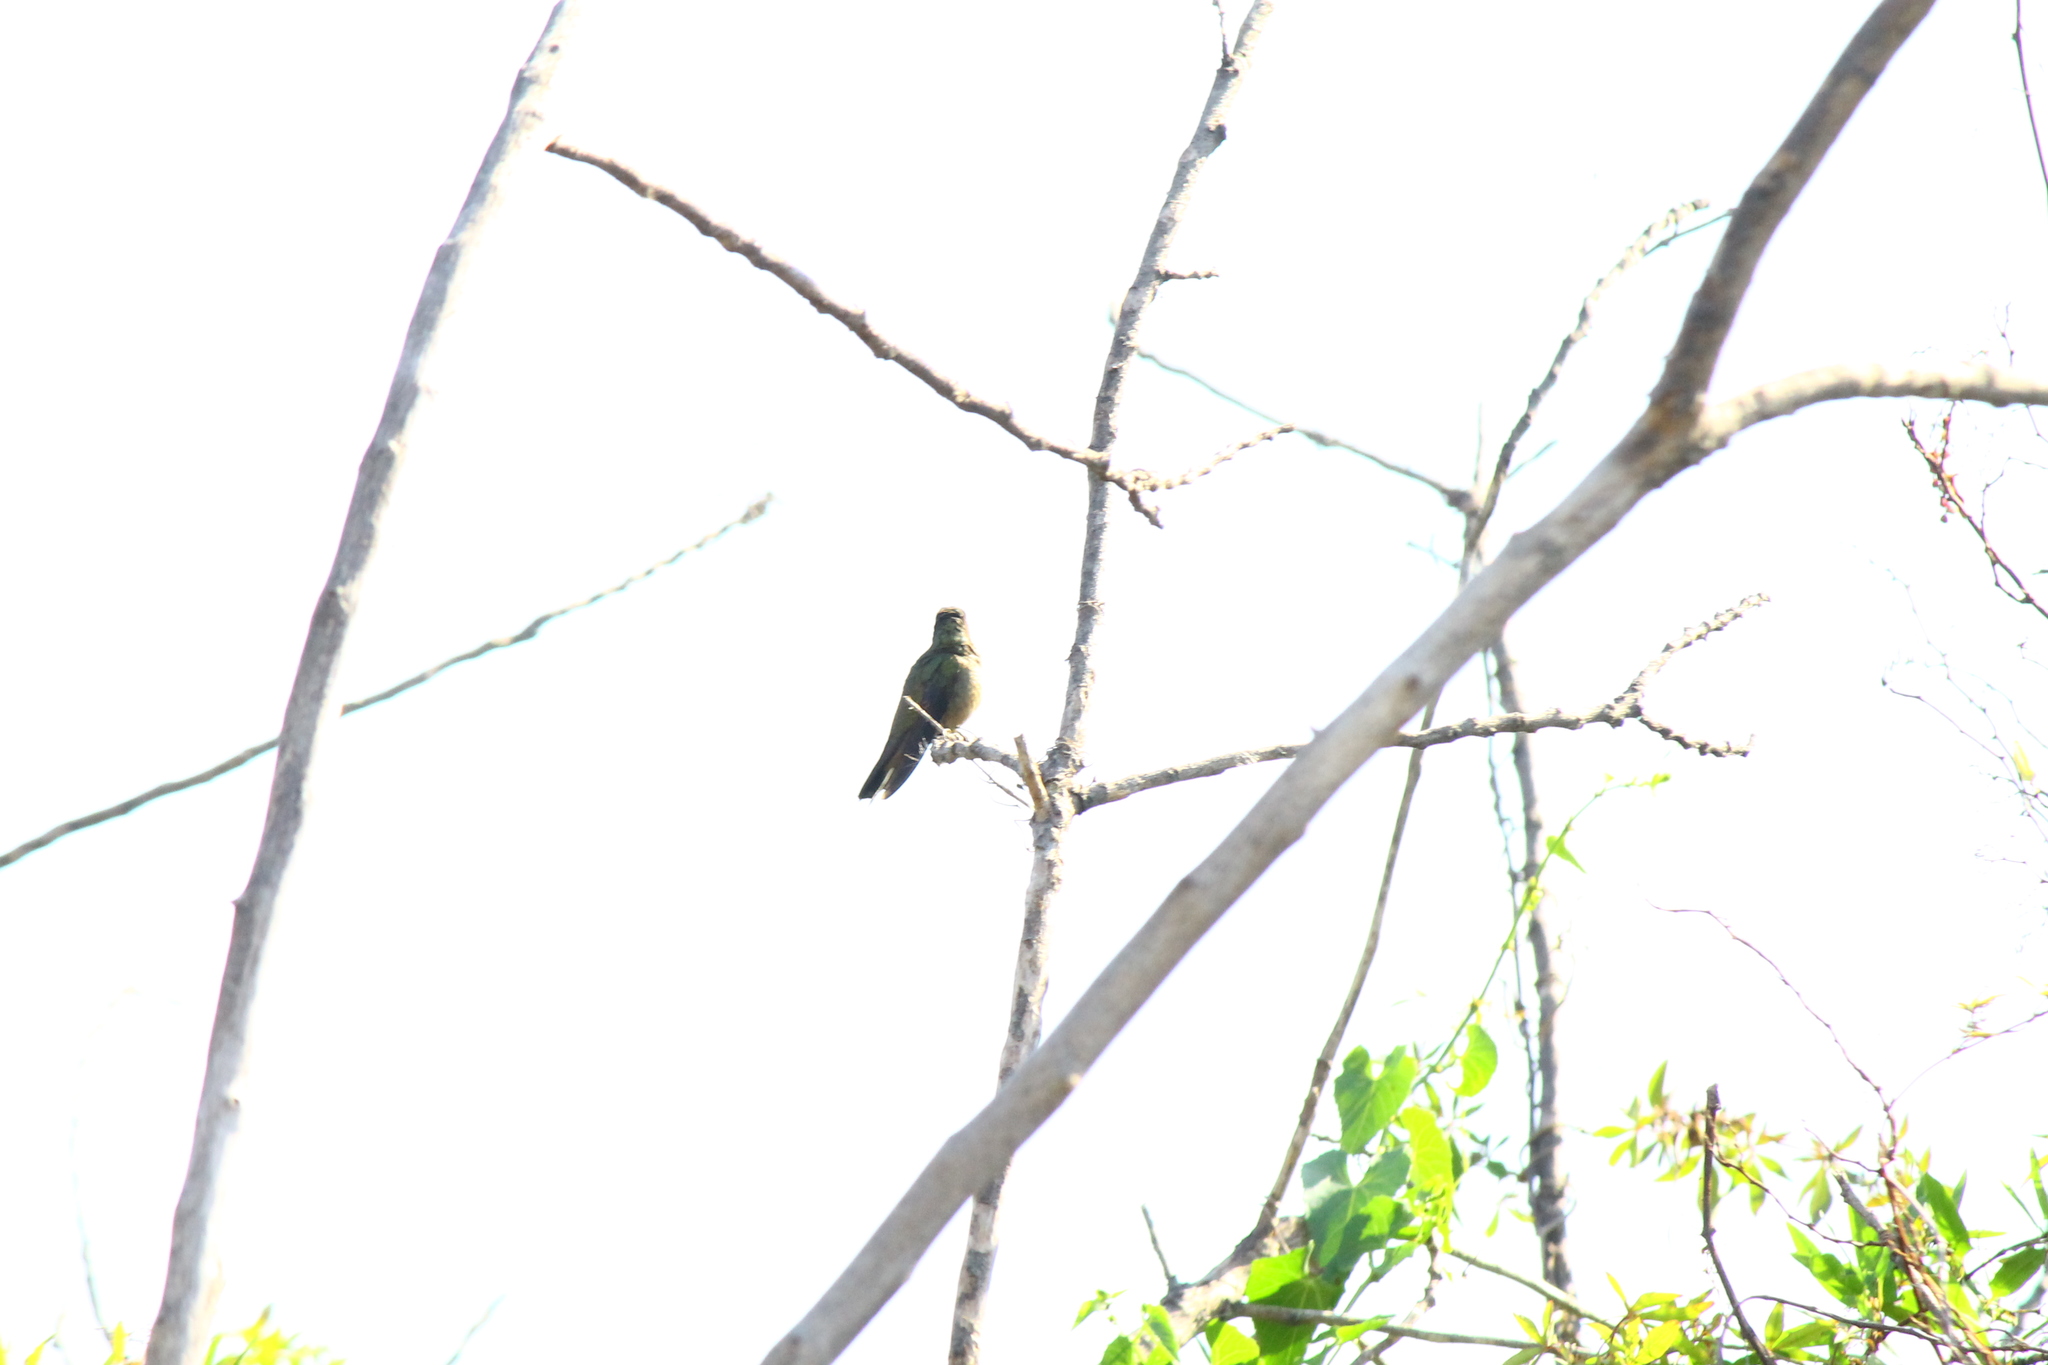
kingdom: Animalia
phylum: Chordata
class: Aves
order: Apodiformes
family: Trochilidae
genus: Hylocharis
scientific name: Hylocharis chrysura
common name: Gilded sapphire
